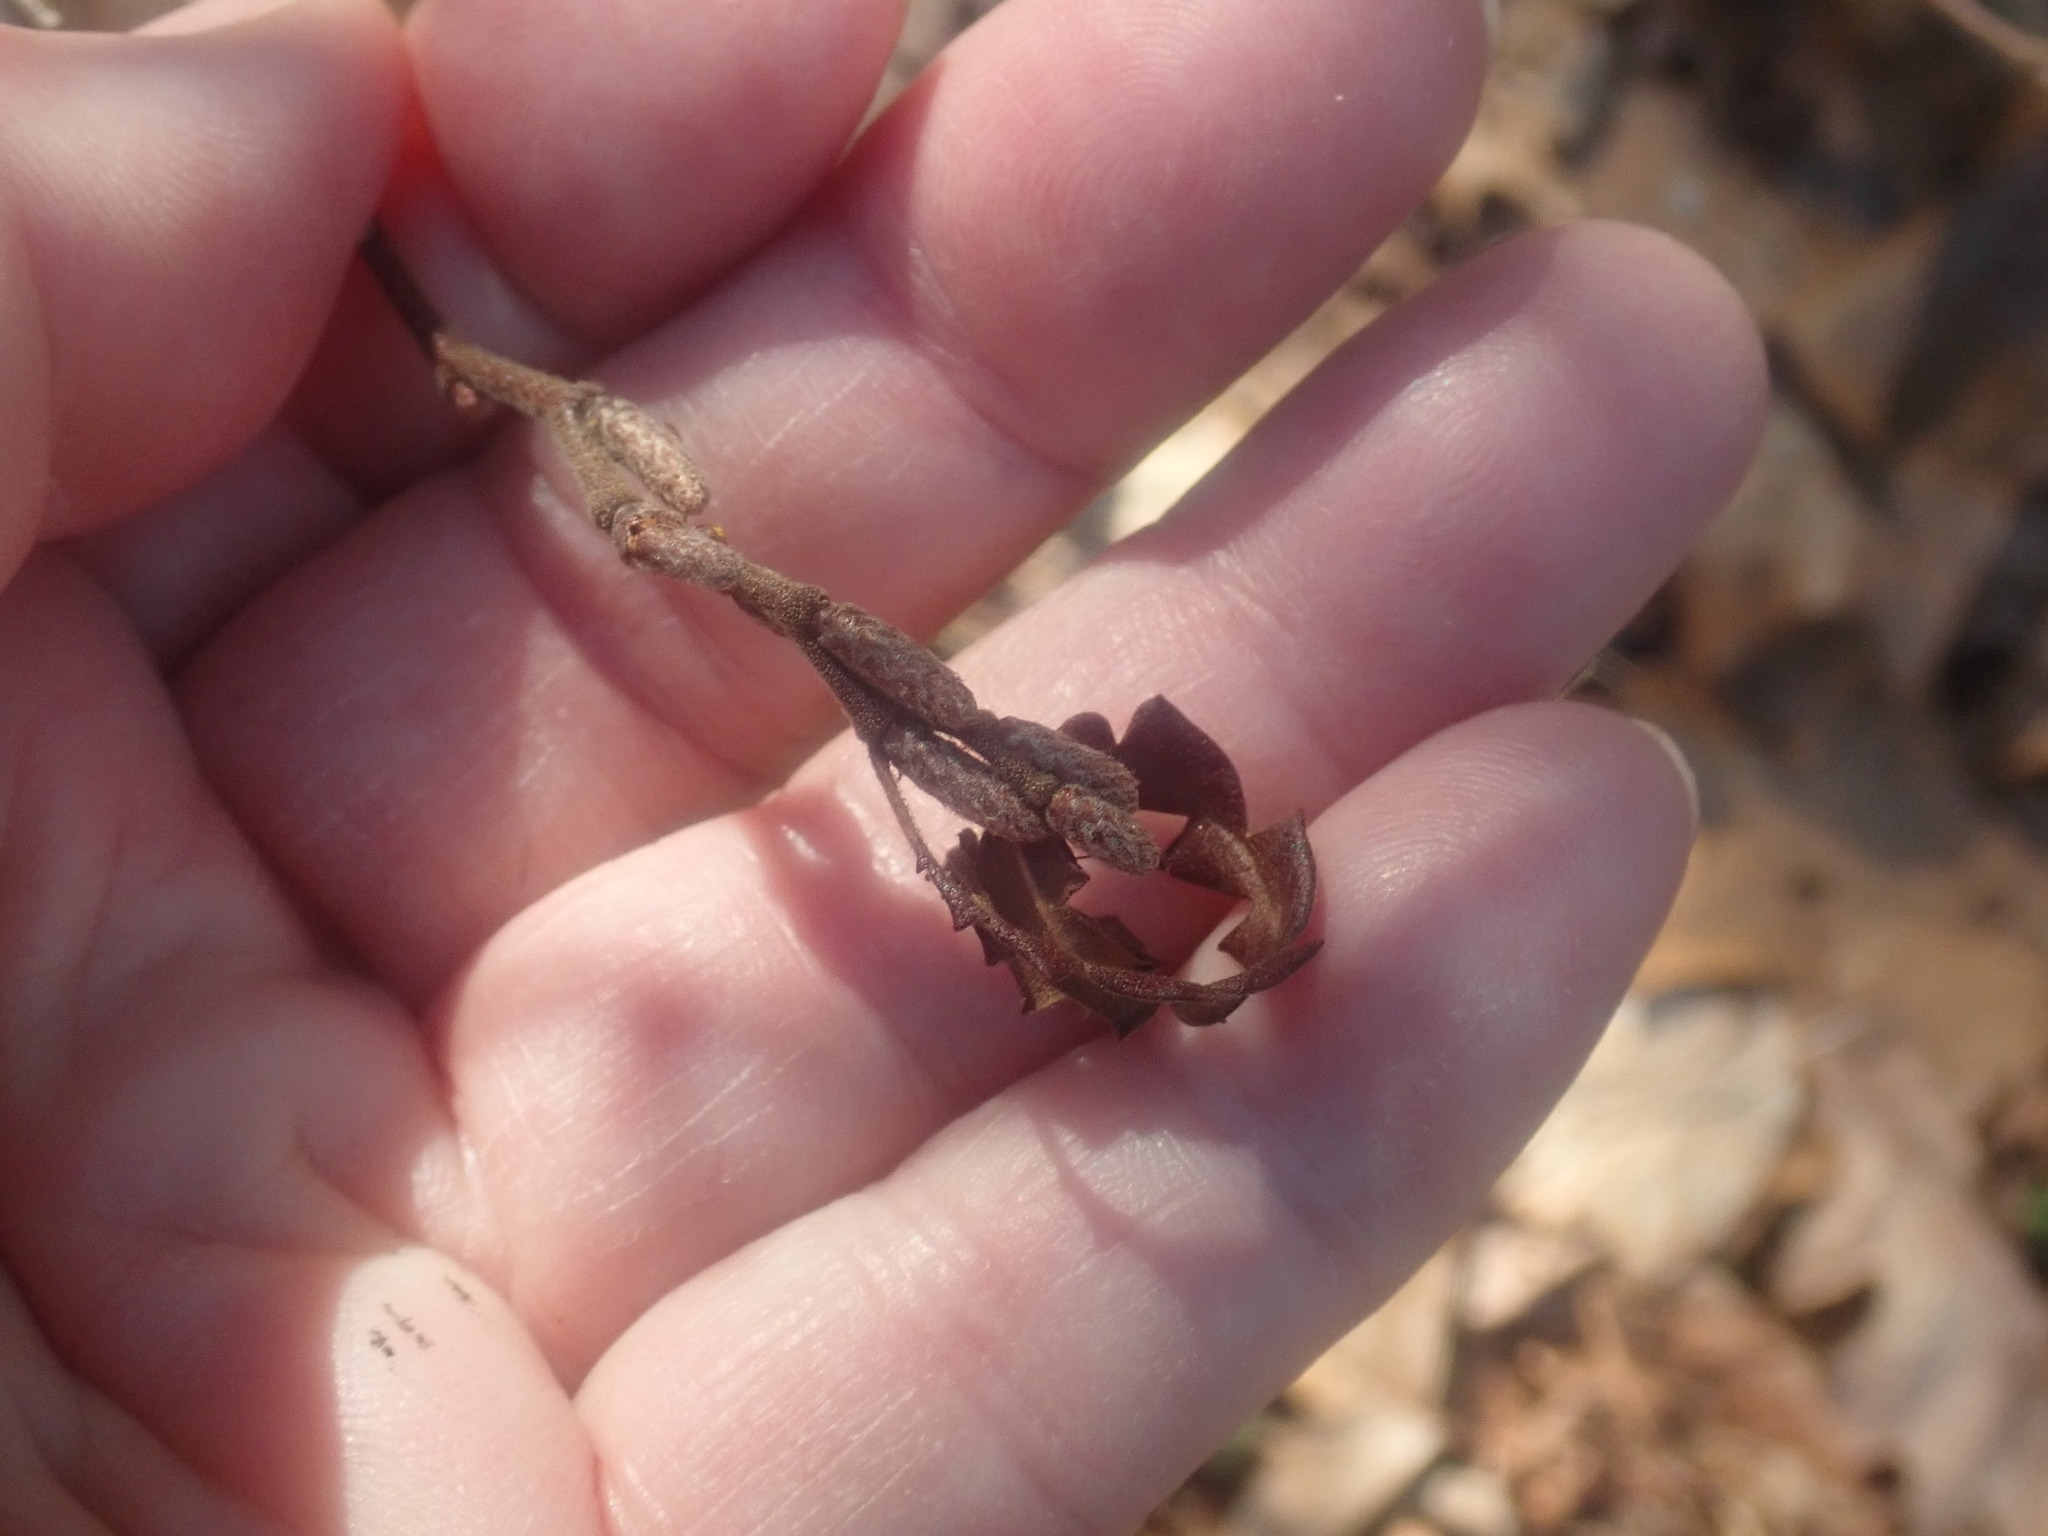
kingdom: Plantae
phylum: Tracheophyta
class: Magnoliopsida
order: Fagales
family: Myricaceae
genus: Comptonia
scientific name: Comptonia peregrina
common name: Sweet-fern
